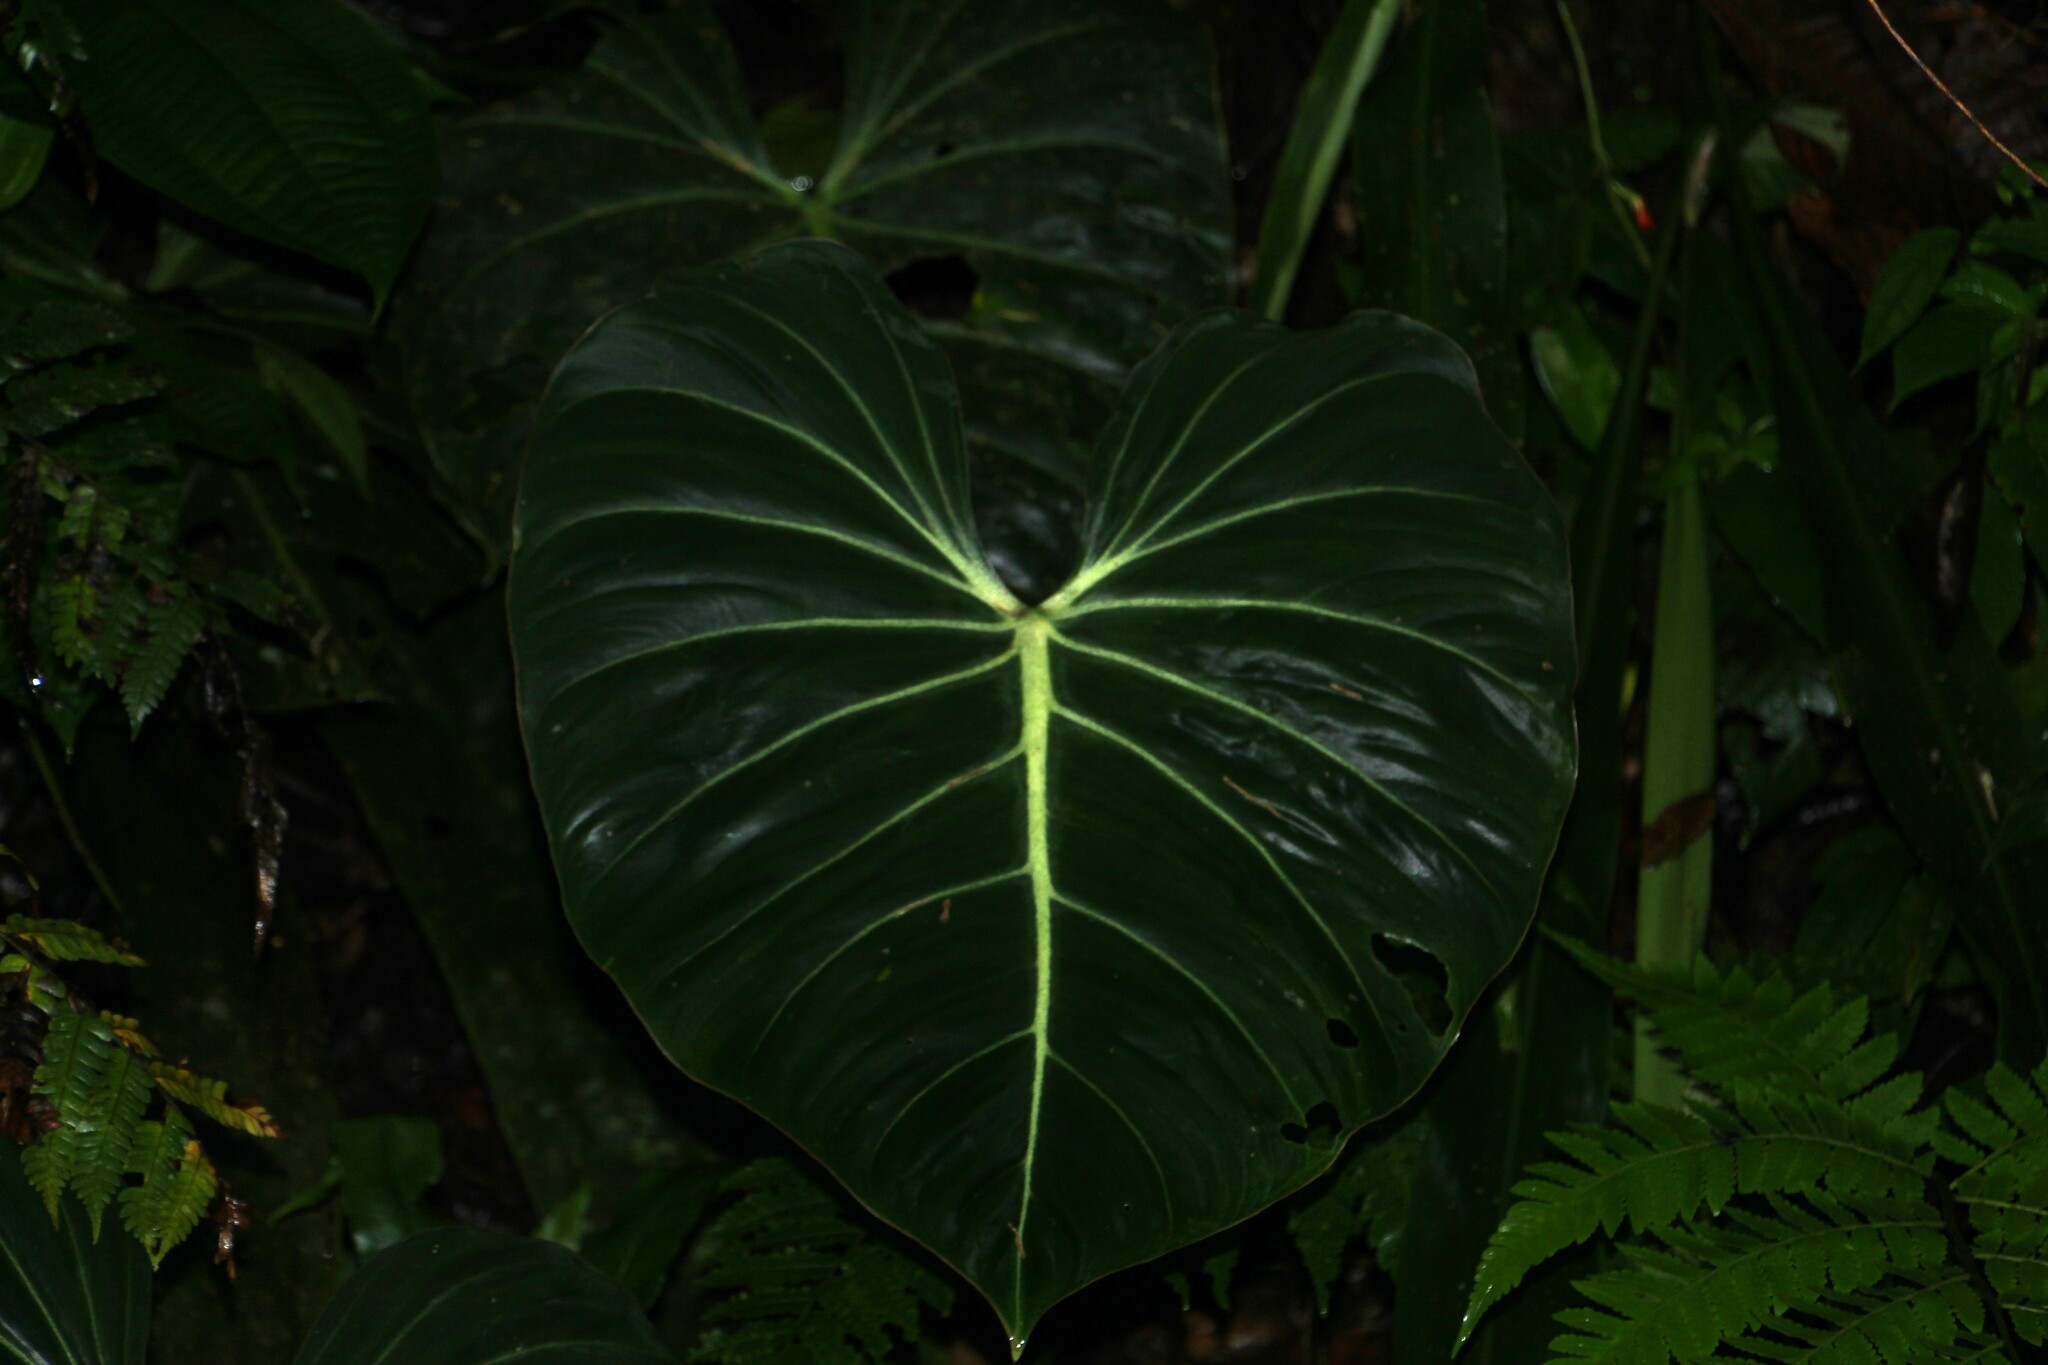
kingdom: Plantae
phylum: Tracheophyta
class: Liliopsida
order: Alismatales
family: Araceae
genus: Philodendron
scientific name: Philodendron gloriosum
